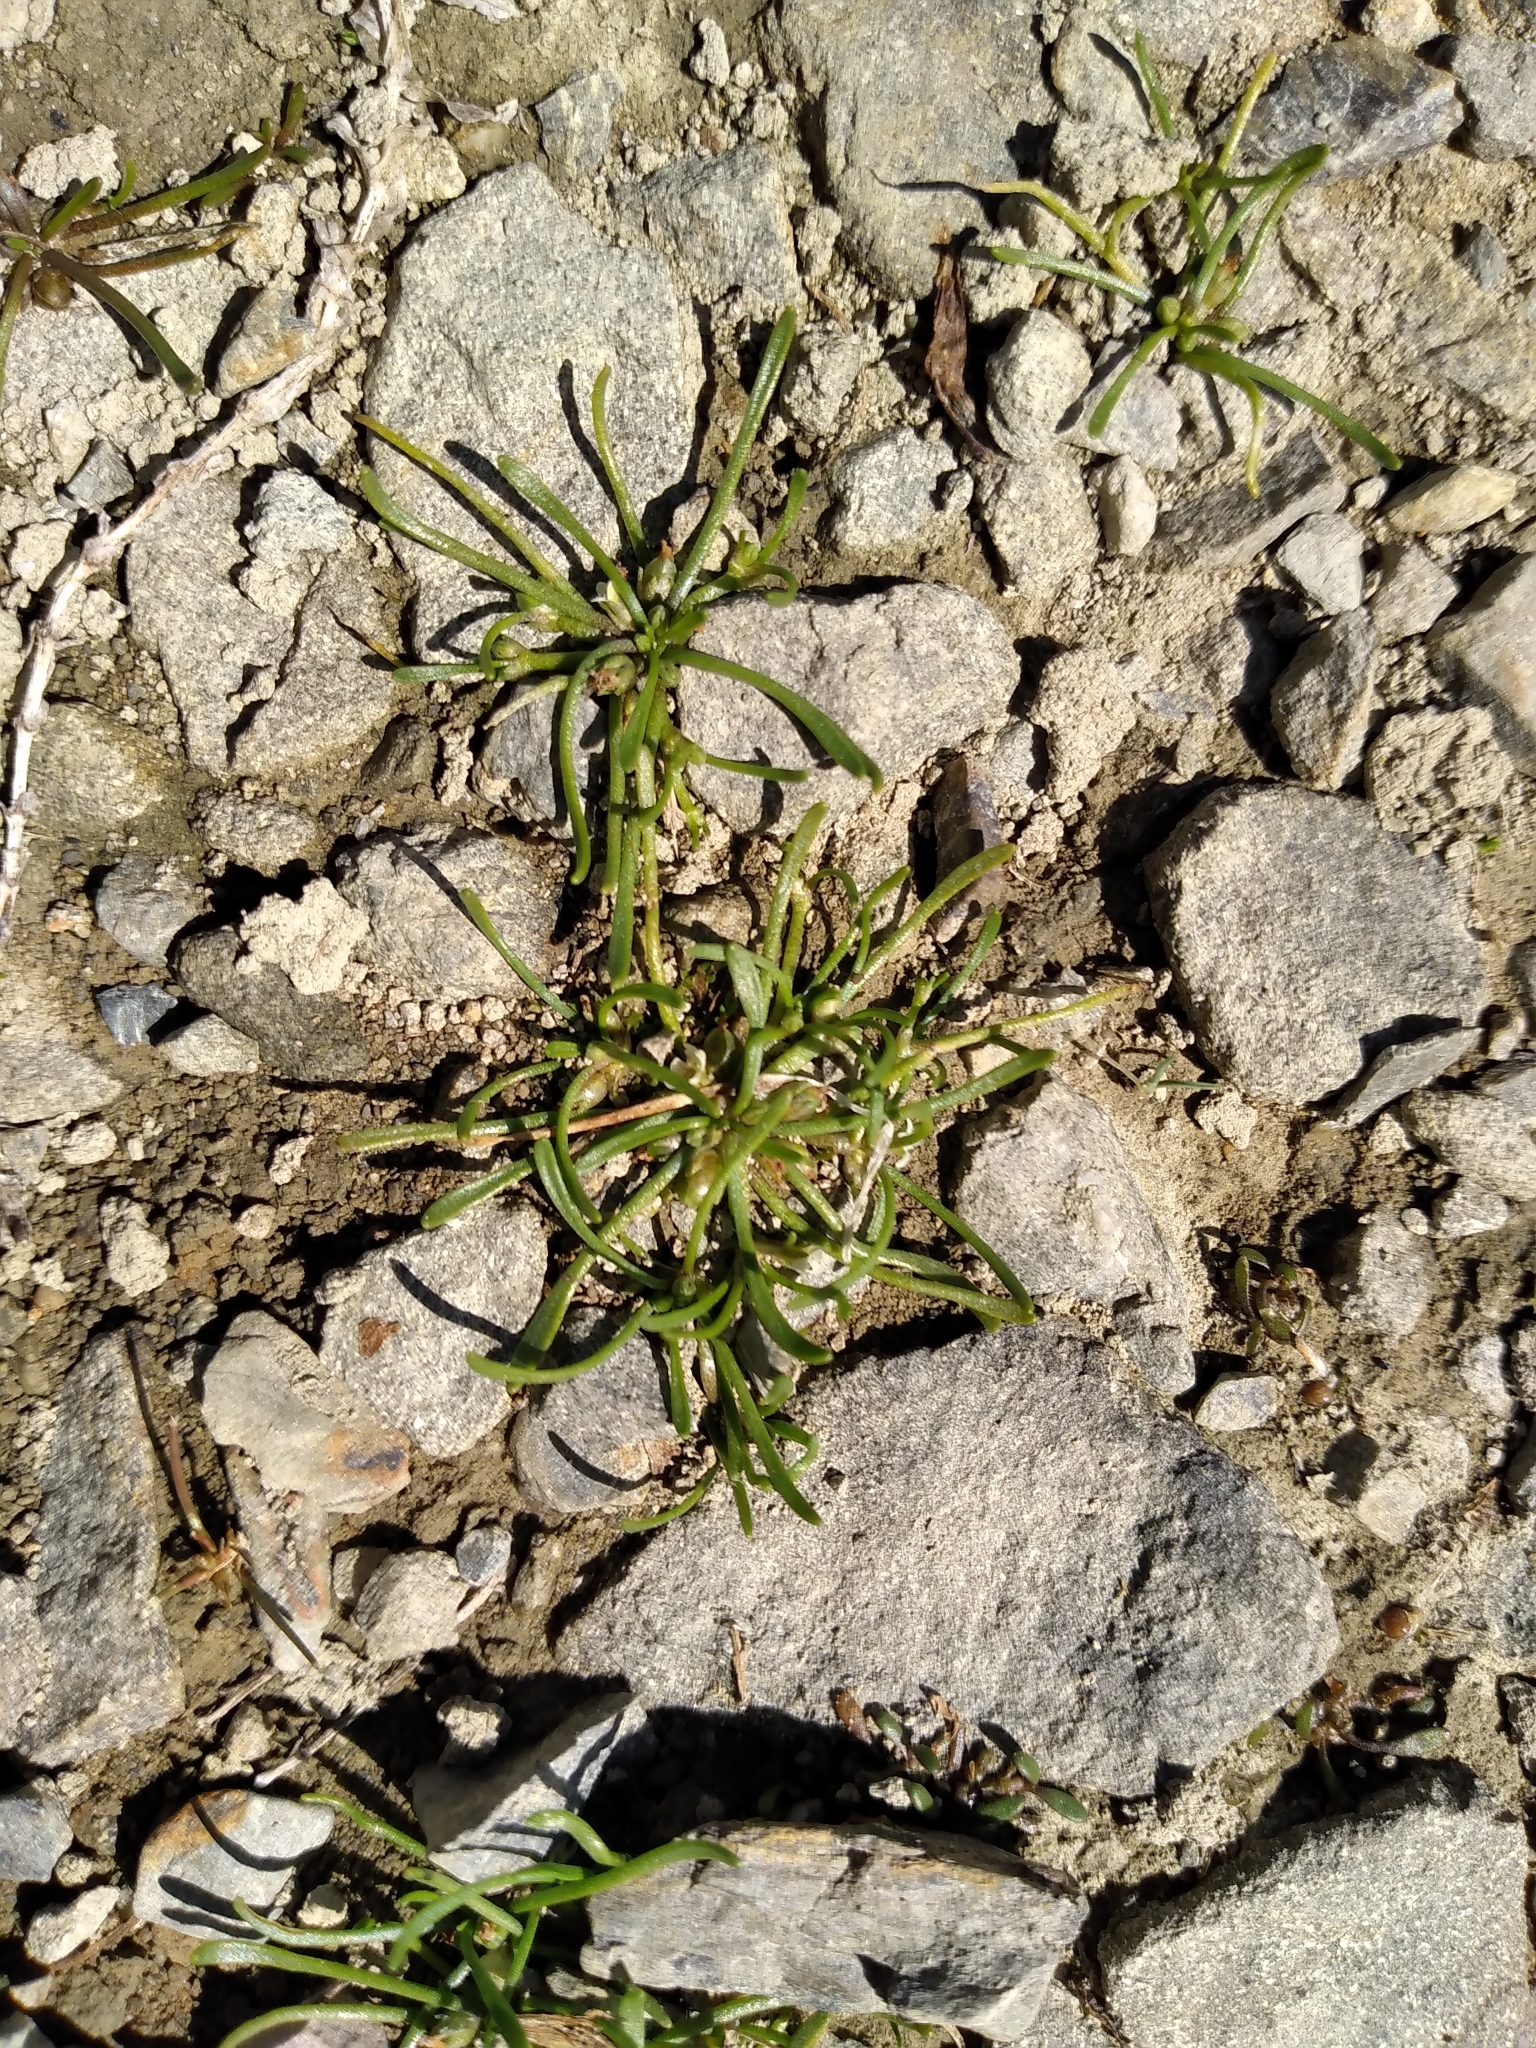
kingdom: Plantae
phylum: Tracheophyta
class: Magnoliopsida
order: Lamiales
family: Scrophulariaceae
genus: Limosella
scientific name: Limosella australis
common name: Welsh mudwort
